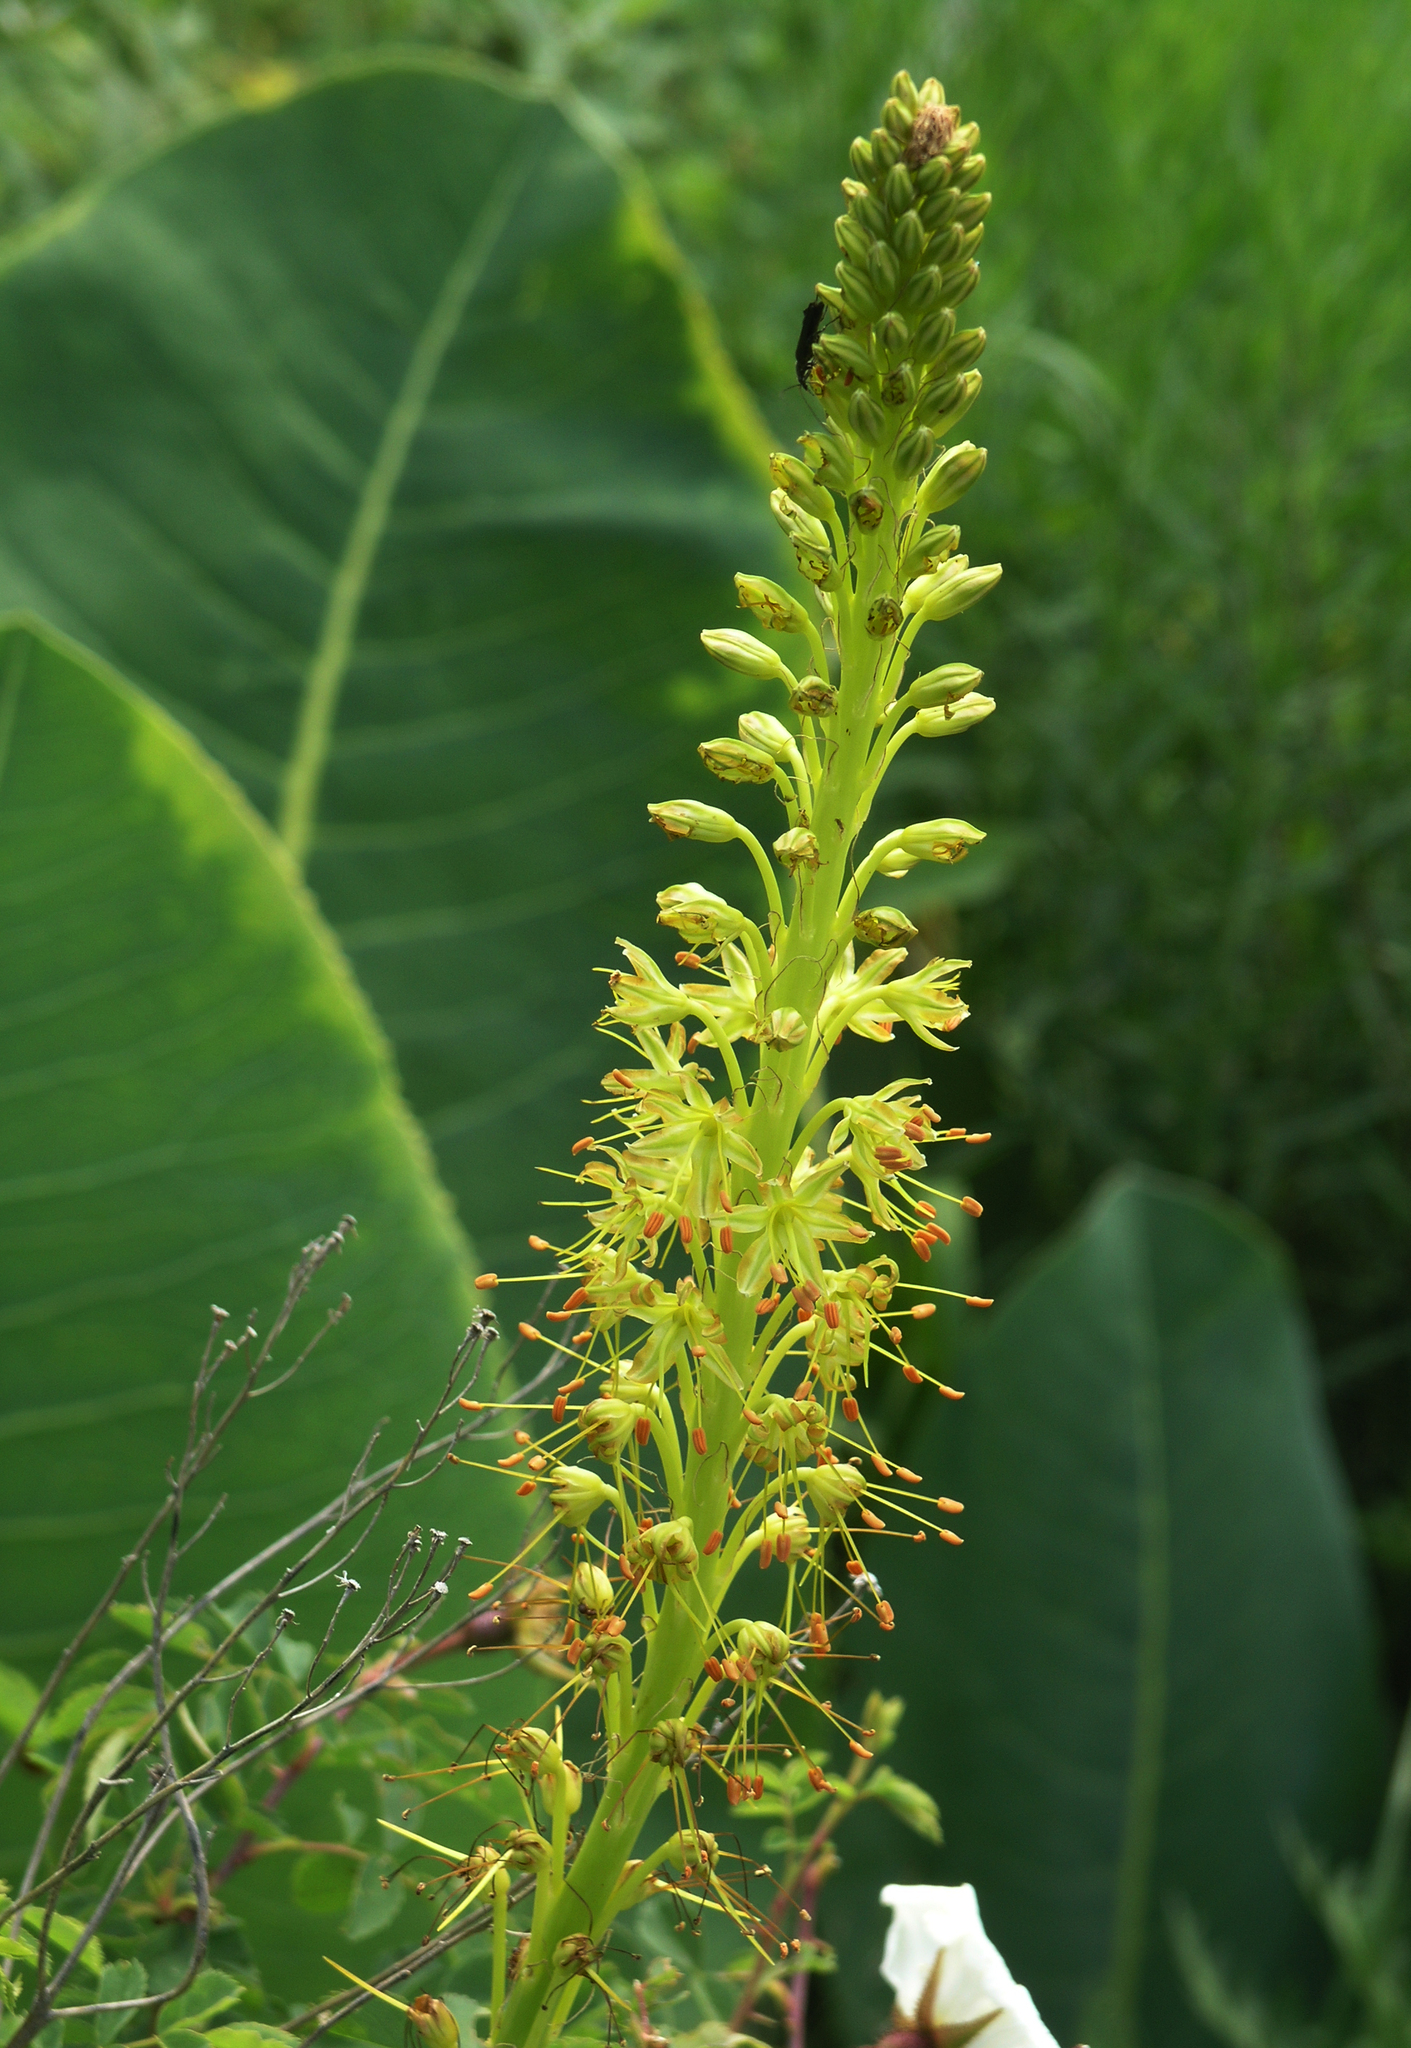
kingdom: Plantae
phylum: Tracheophyta
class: Liliopsida
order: Asparagales
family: Asphodelaceae
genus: Eremurus
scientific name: Eremurus fuscus
